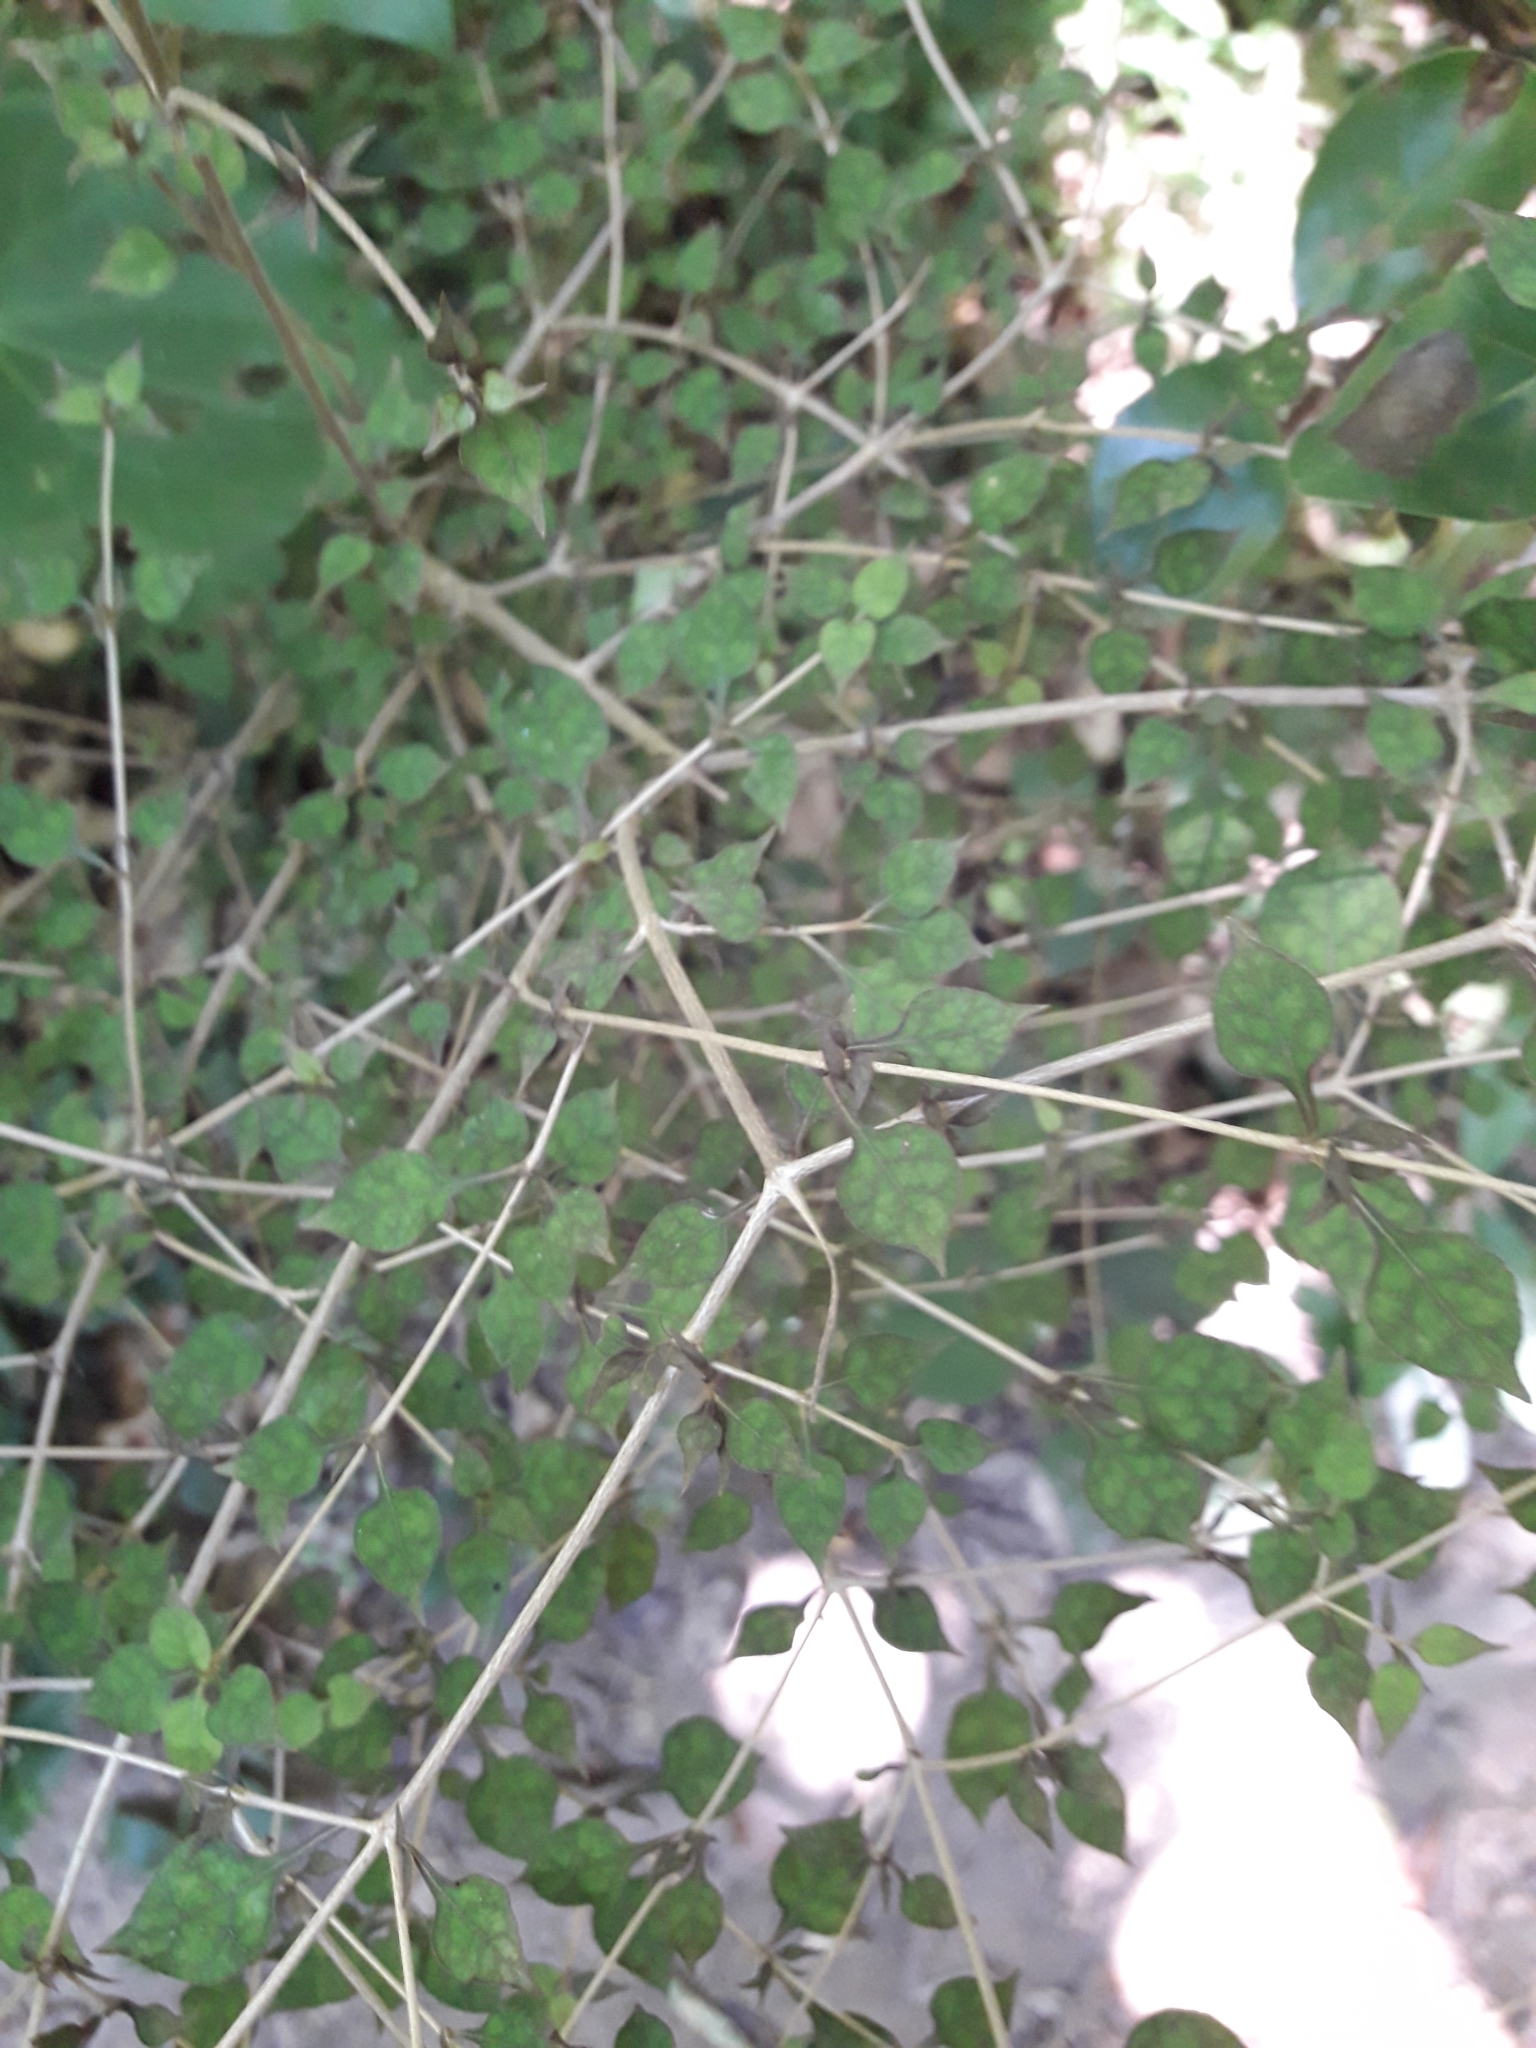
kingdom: Plantae
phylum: Tracheophyta
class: Magnoliopsida
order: Gentianales
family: Rubiaceae
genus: Coprosma
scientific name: Coprosma areolata
